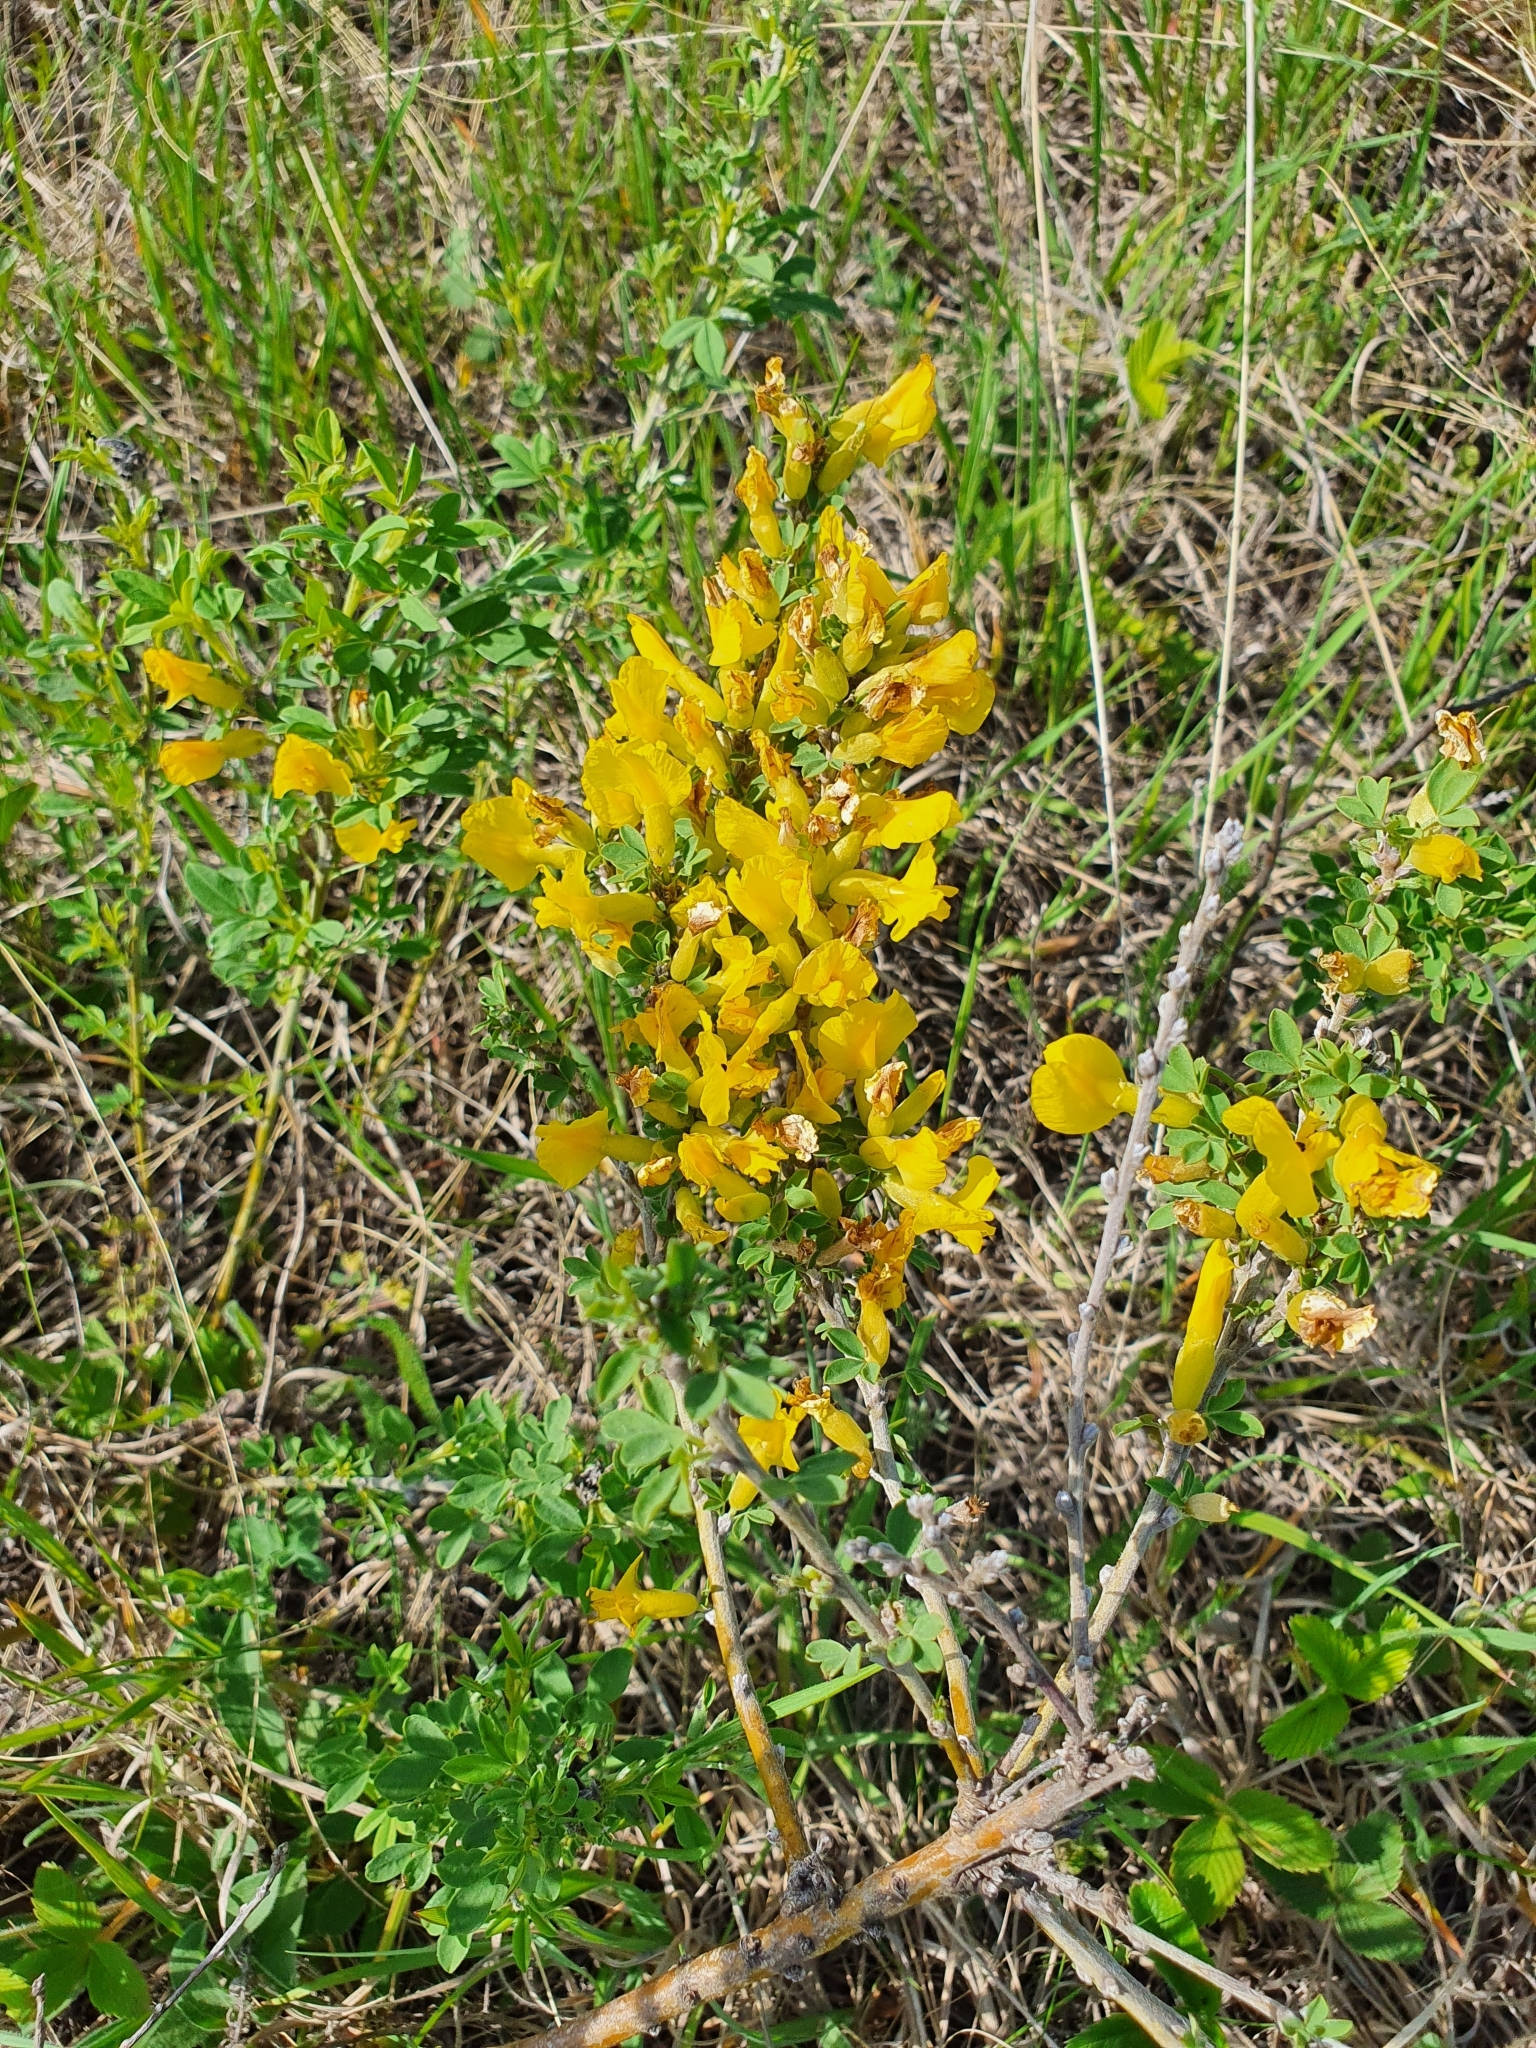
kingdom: Plantae
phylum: Tracheophyta
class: Magnoliopsida
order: Fabales
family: Fabaceae
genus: Chamaecytisus
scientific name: Chamaecytisus ruthenicus
